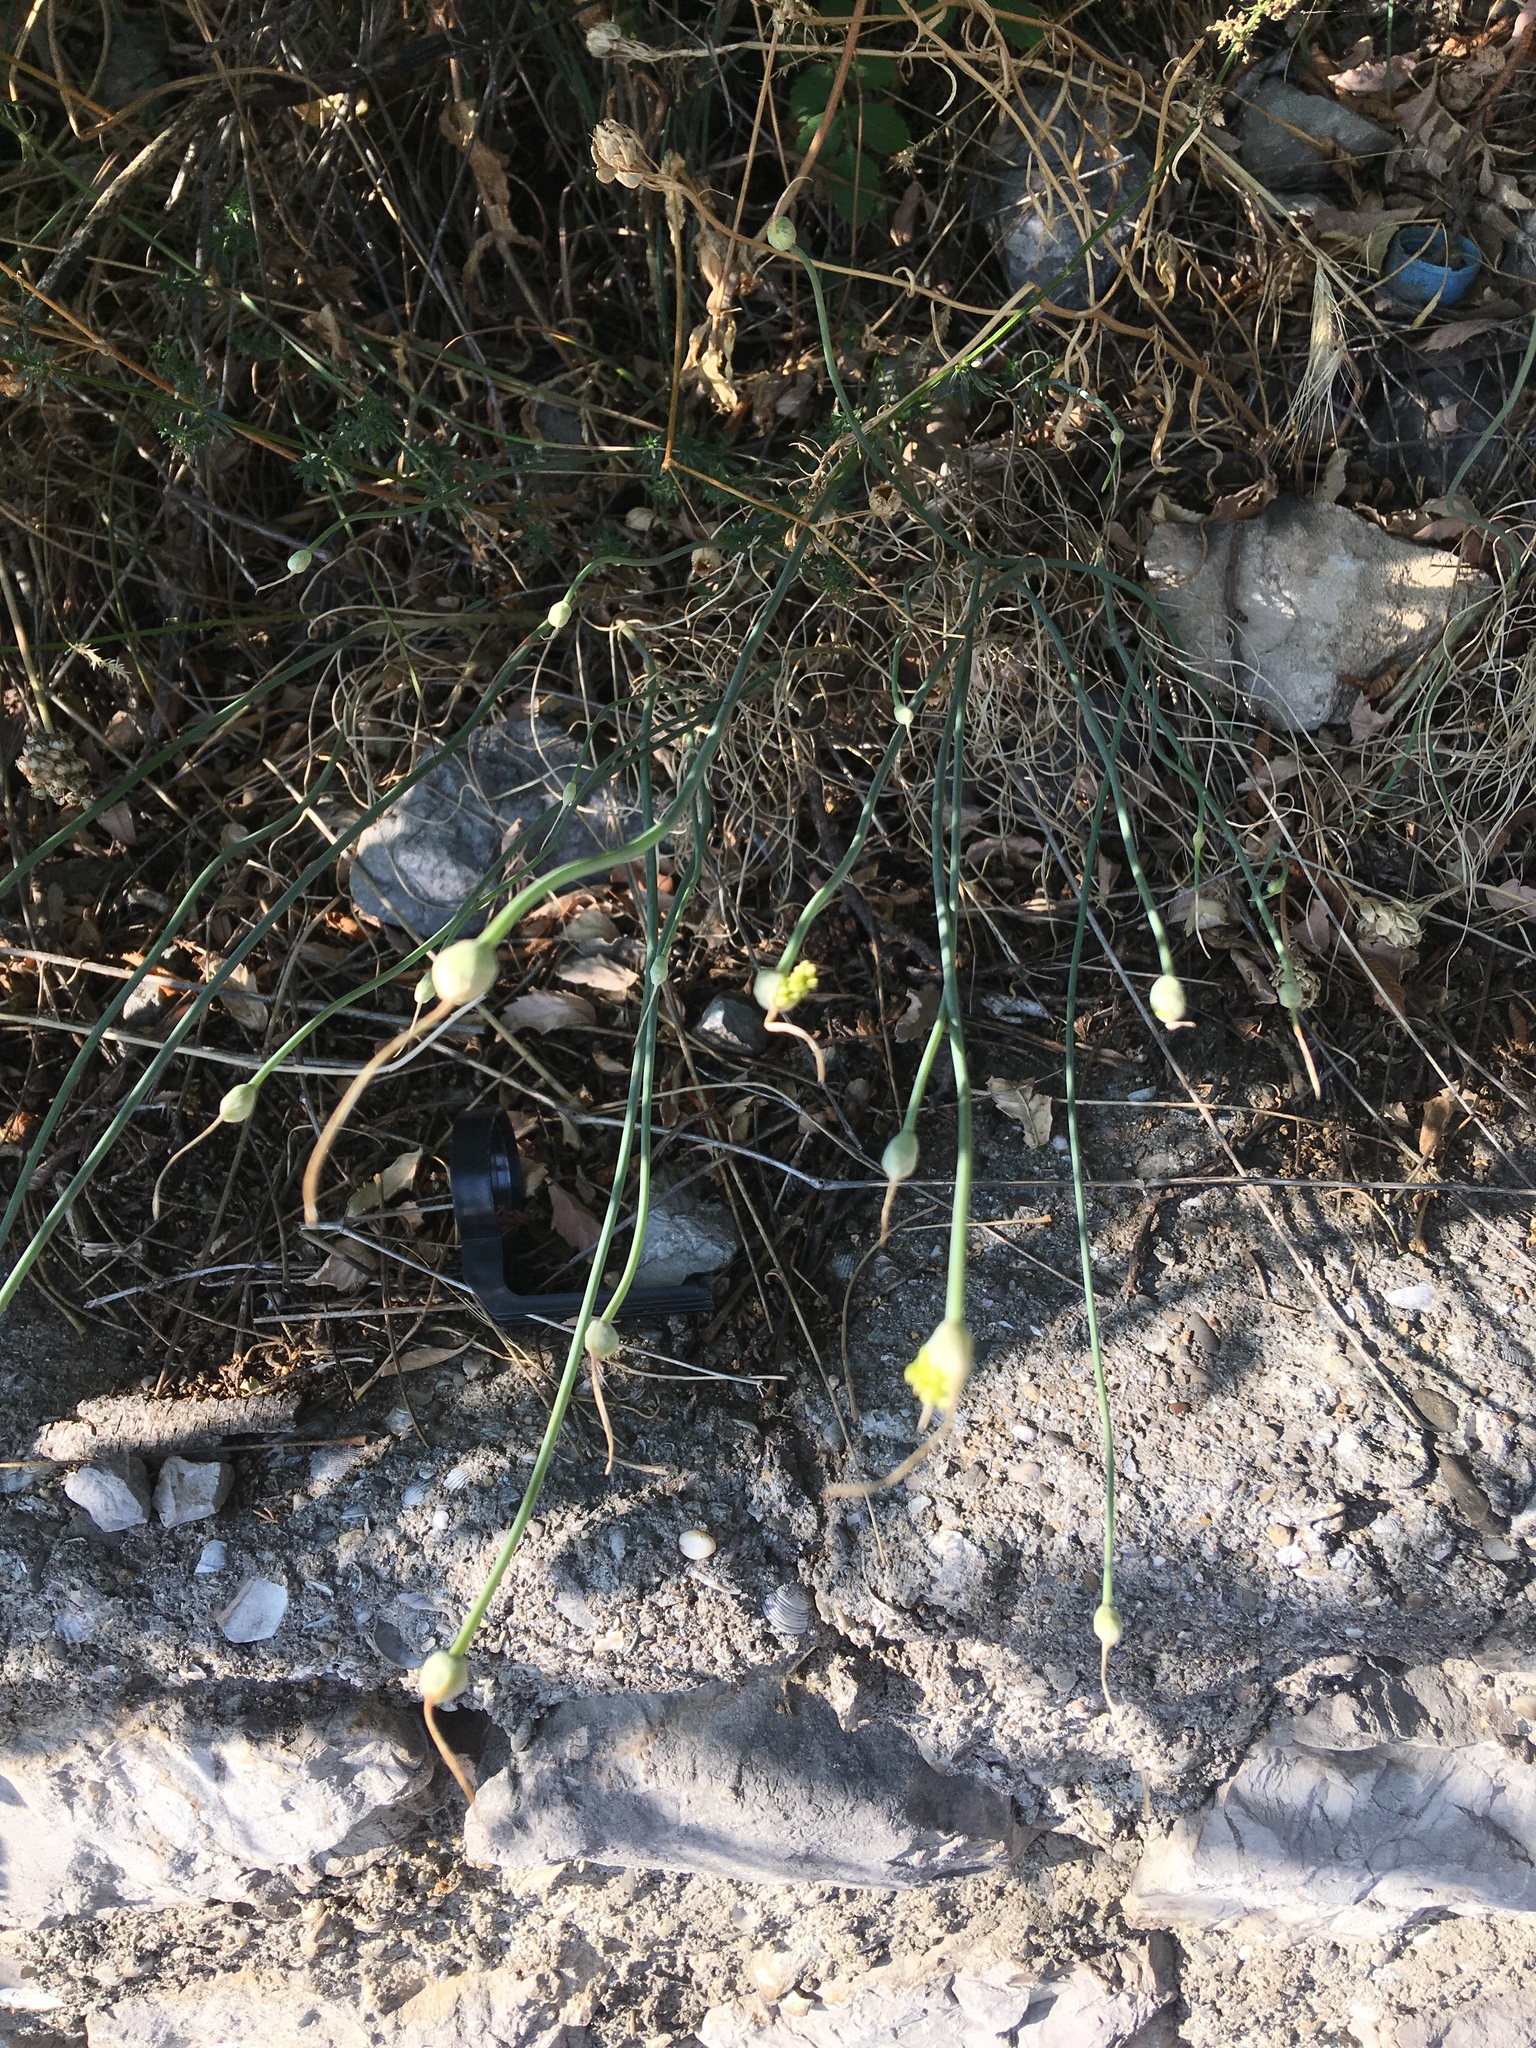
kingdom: Plantae
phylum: Tracheophyta
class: Liliopsida
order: Asparagales
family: Amaryllidaceae
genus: Allium
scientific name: Allium marschallianum
